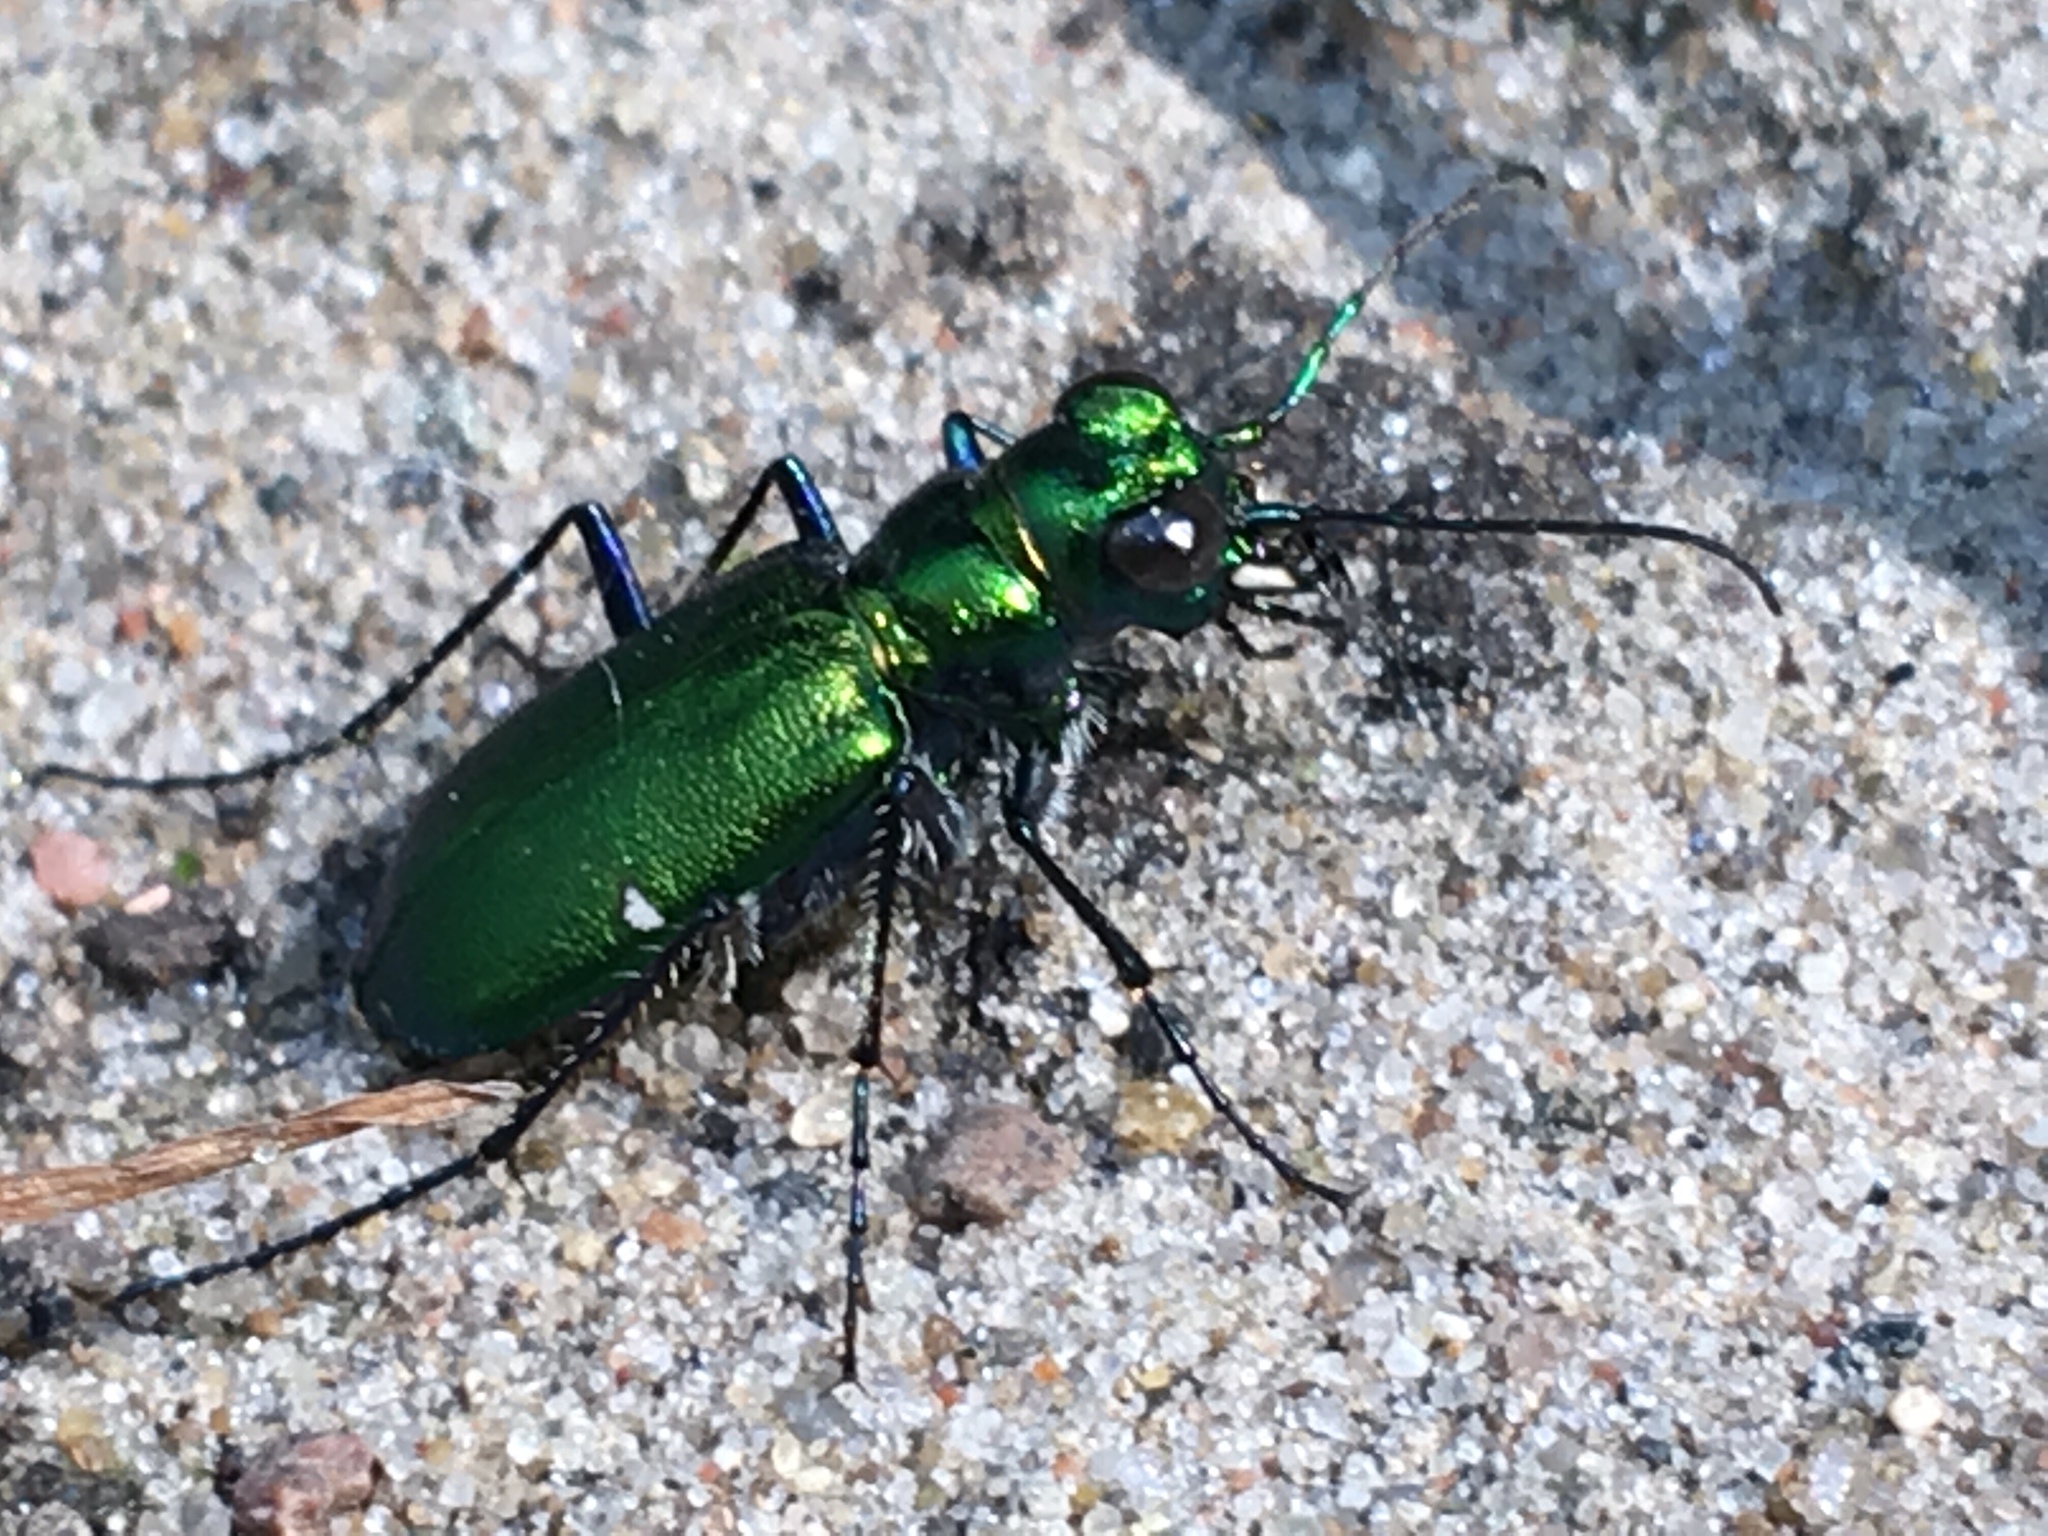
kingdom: Animalia
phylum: Arthropoda
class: Insecta
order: Coleoptera
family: Carabidae
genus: Cicindela
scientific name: Cicindela sexguttata
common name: Six-spotted tiger beetle
